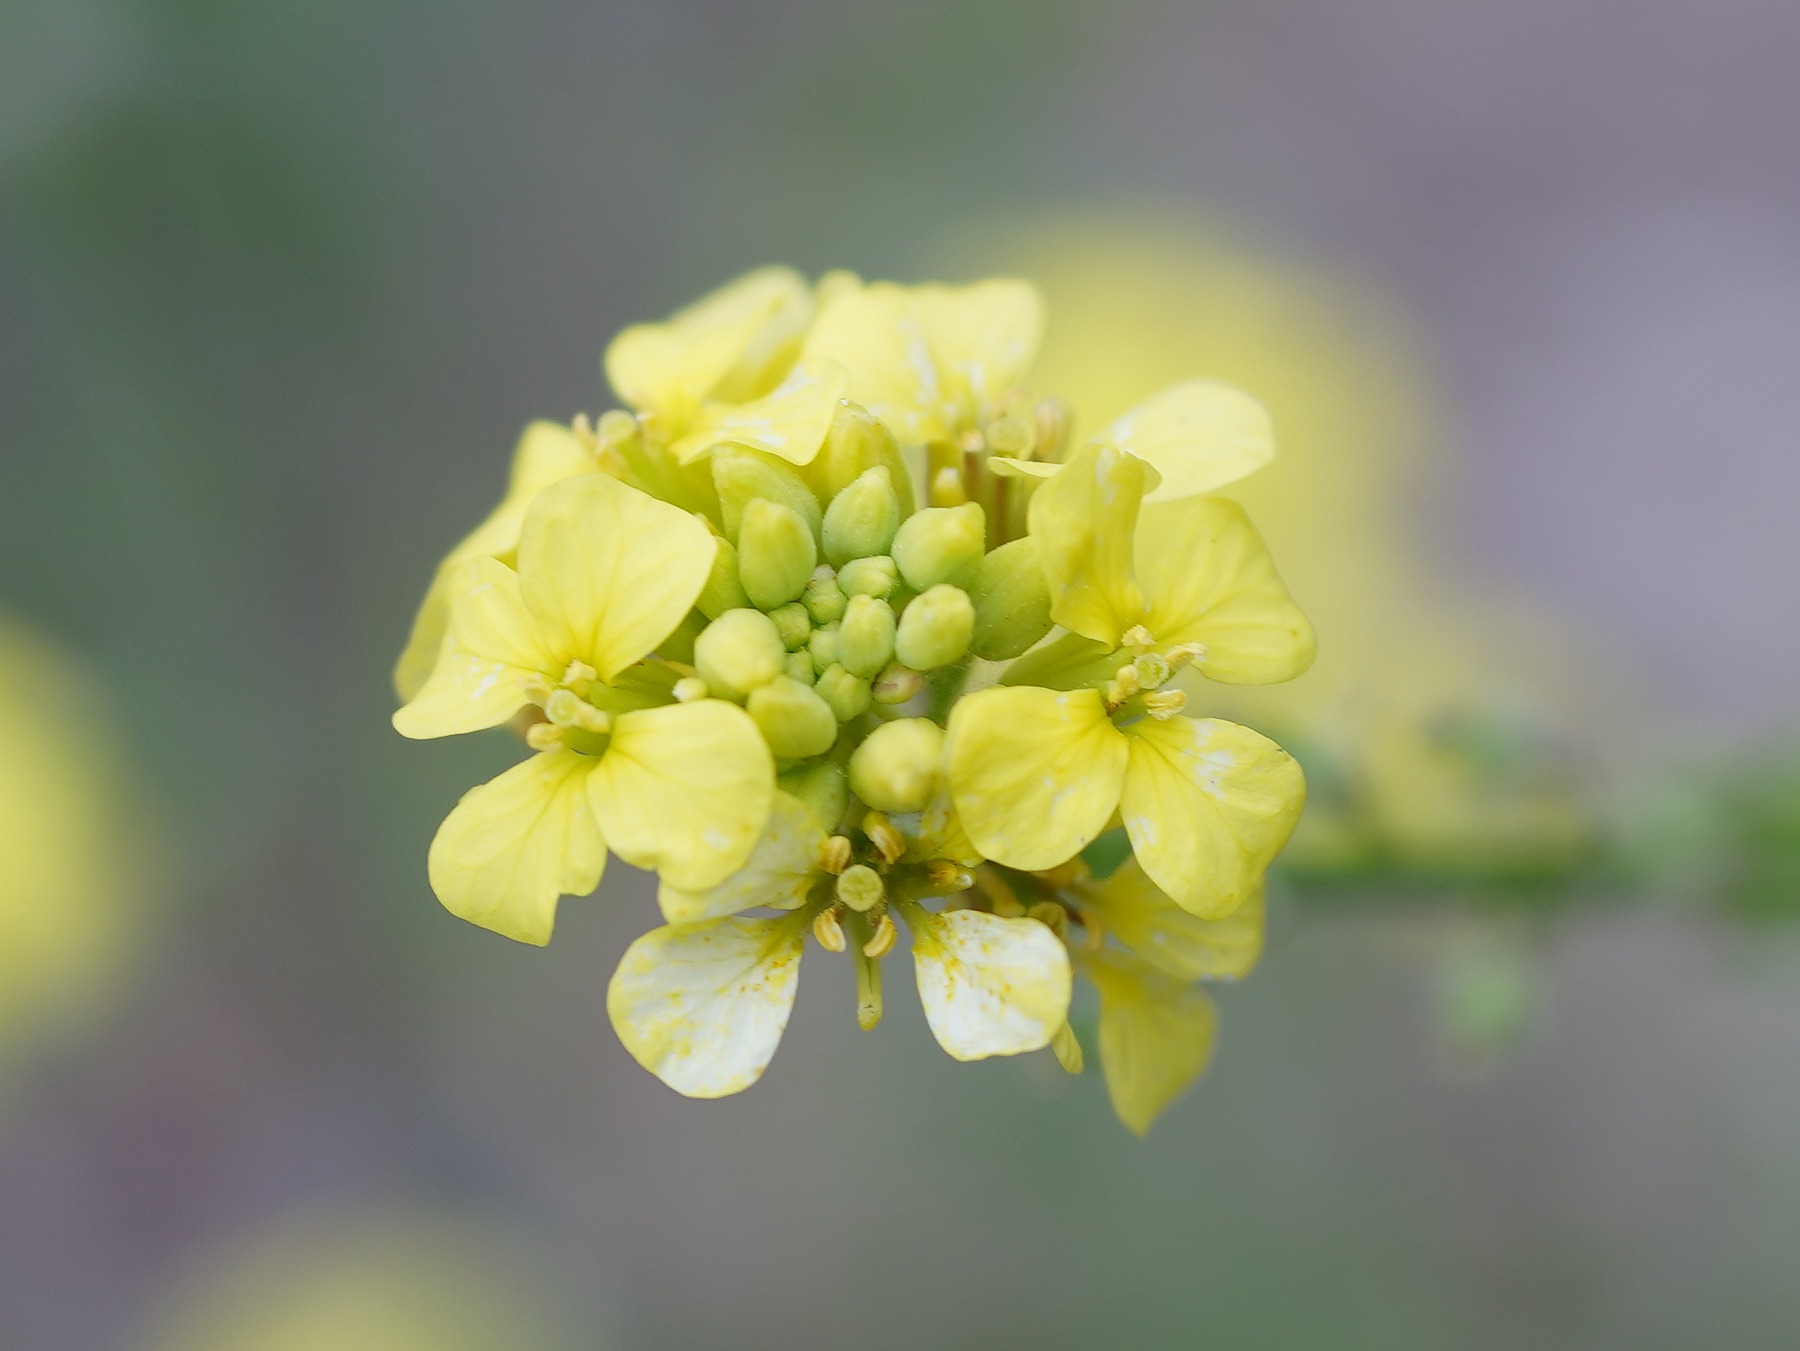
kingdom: Plantae
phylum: Tracheophyta
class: Magnoliopsida
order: Brassicales
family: Brassicaceae
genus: Rapistrum
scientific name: Rapistrum rugosum
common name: Annual bastardcabbage
